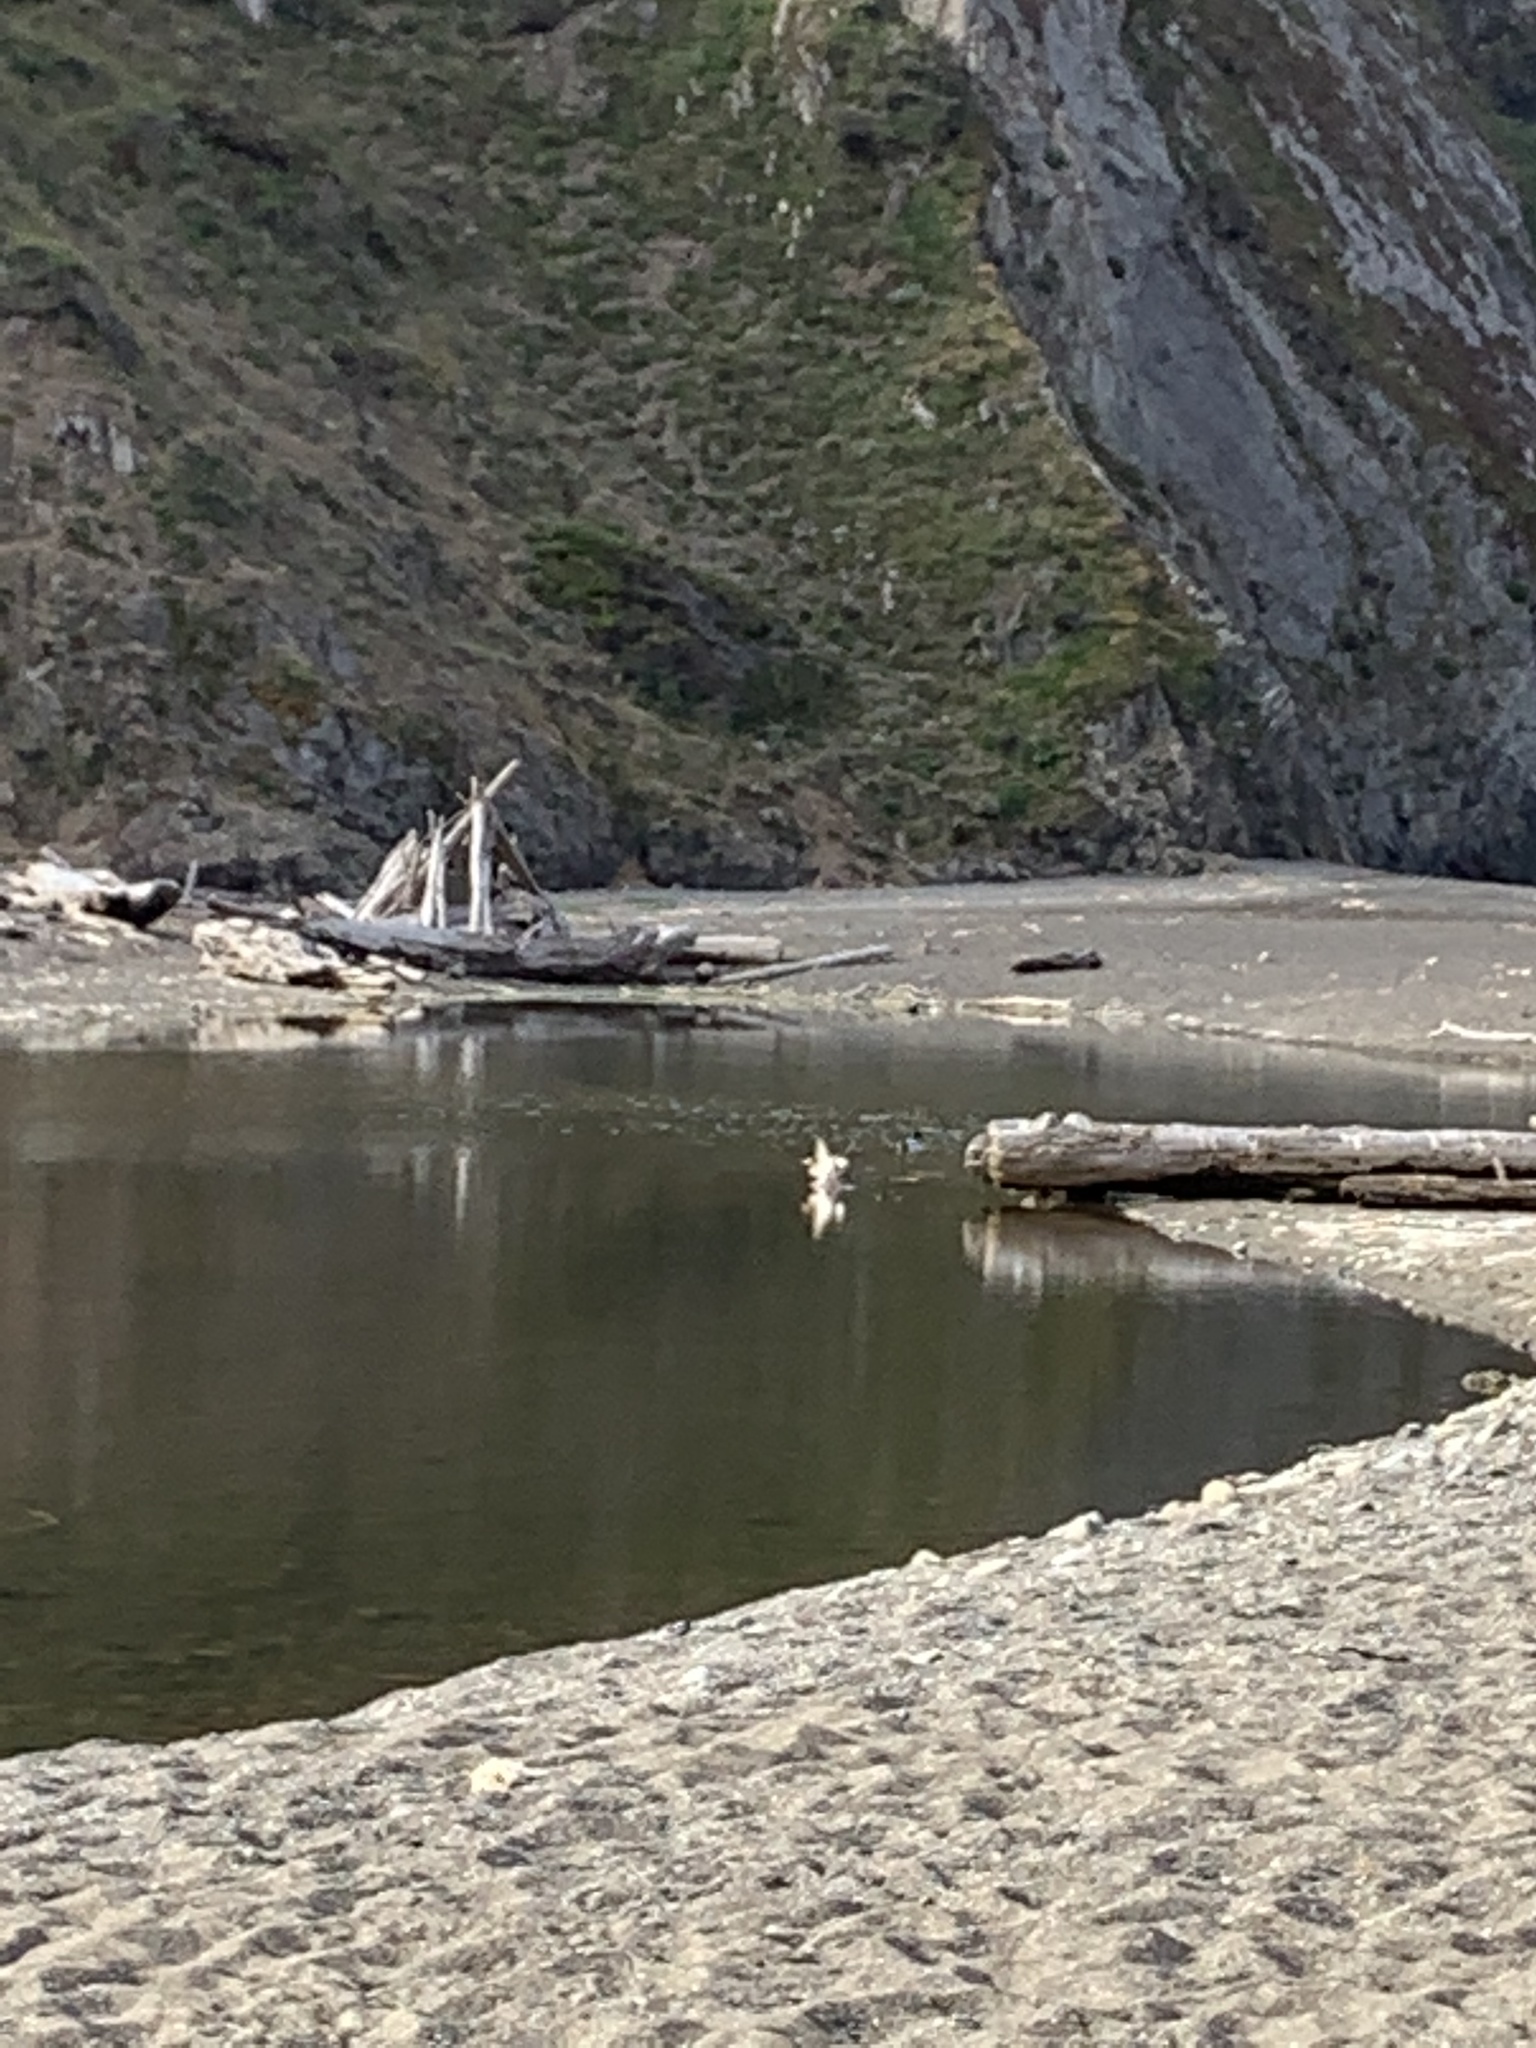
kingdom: Animalia
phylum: Chordata
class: Aves
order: Anseriformes
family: Anatidae
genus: Mergus
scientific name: Mergus merganser
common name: Common merganser
